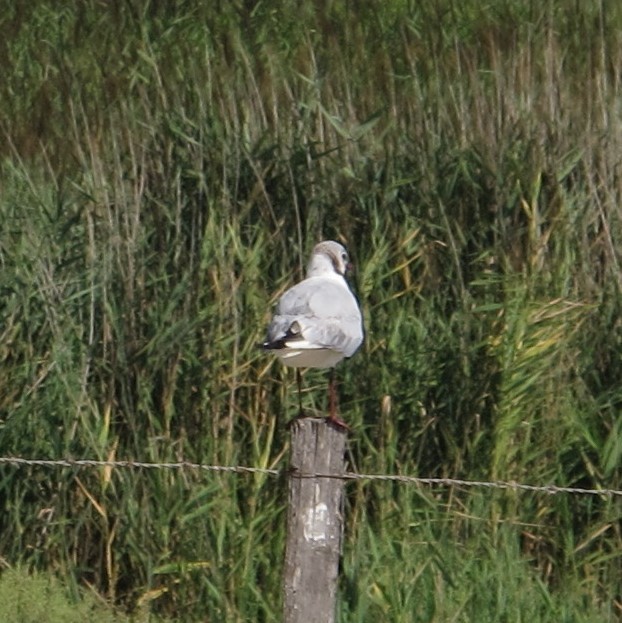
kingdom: Animalia
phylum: Chordata
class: Aves
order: Charadriiformes
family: Laridae
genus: Chroicocephalus
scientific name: Chroicocephalus ridibundus
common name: Black-headed gull
